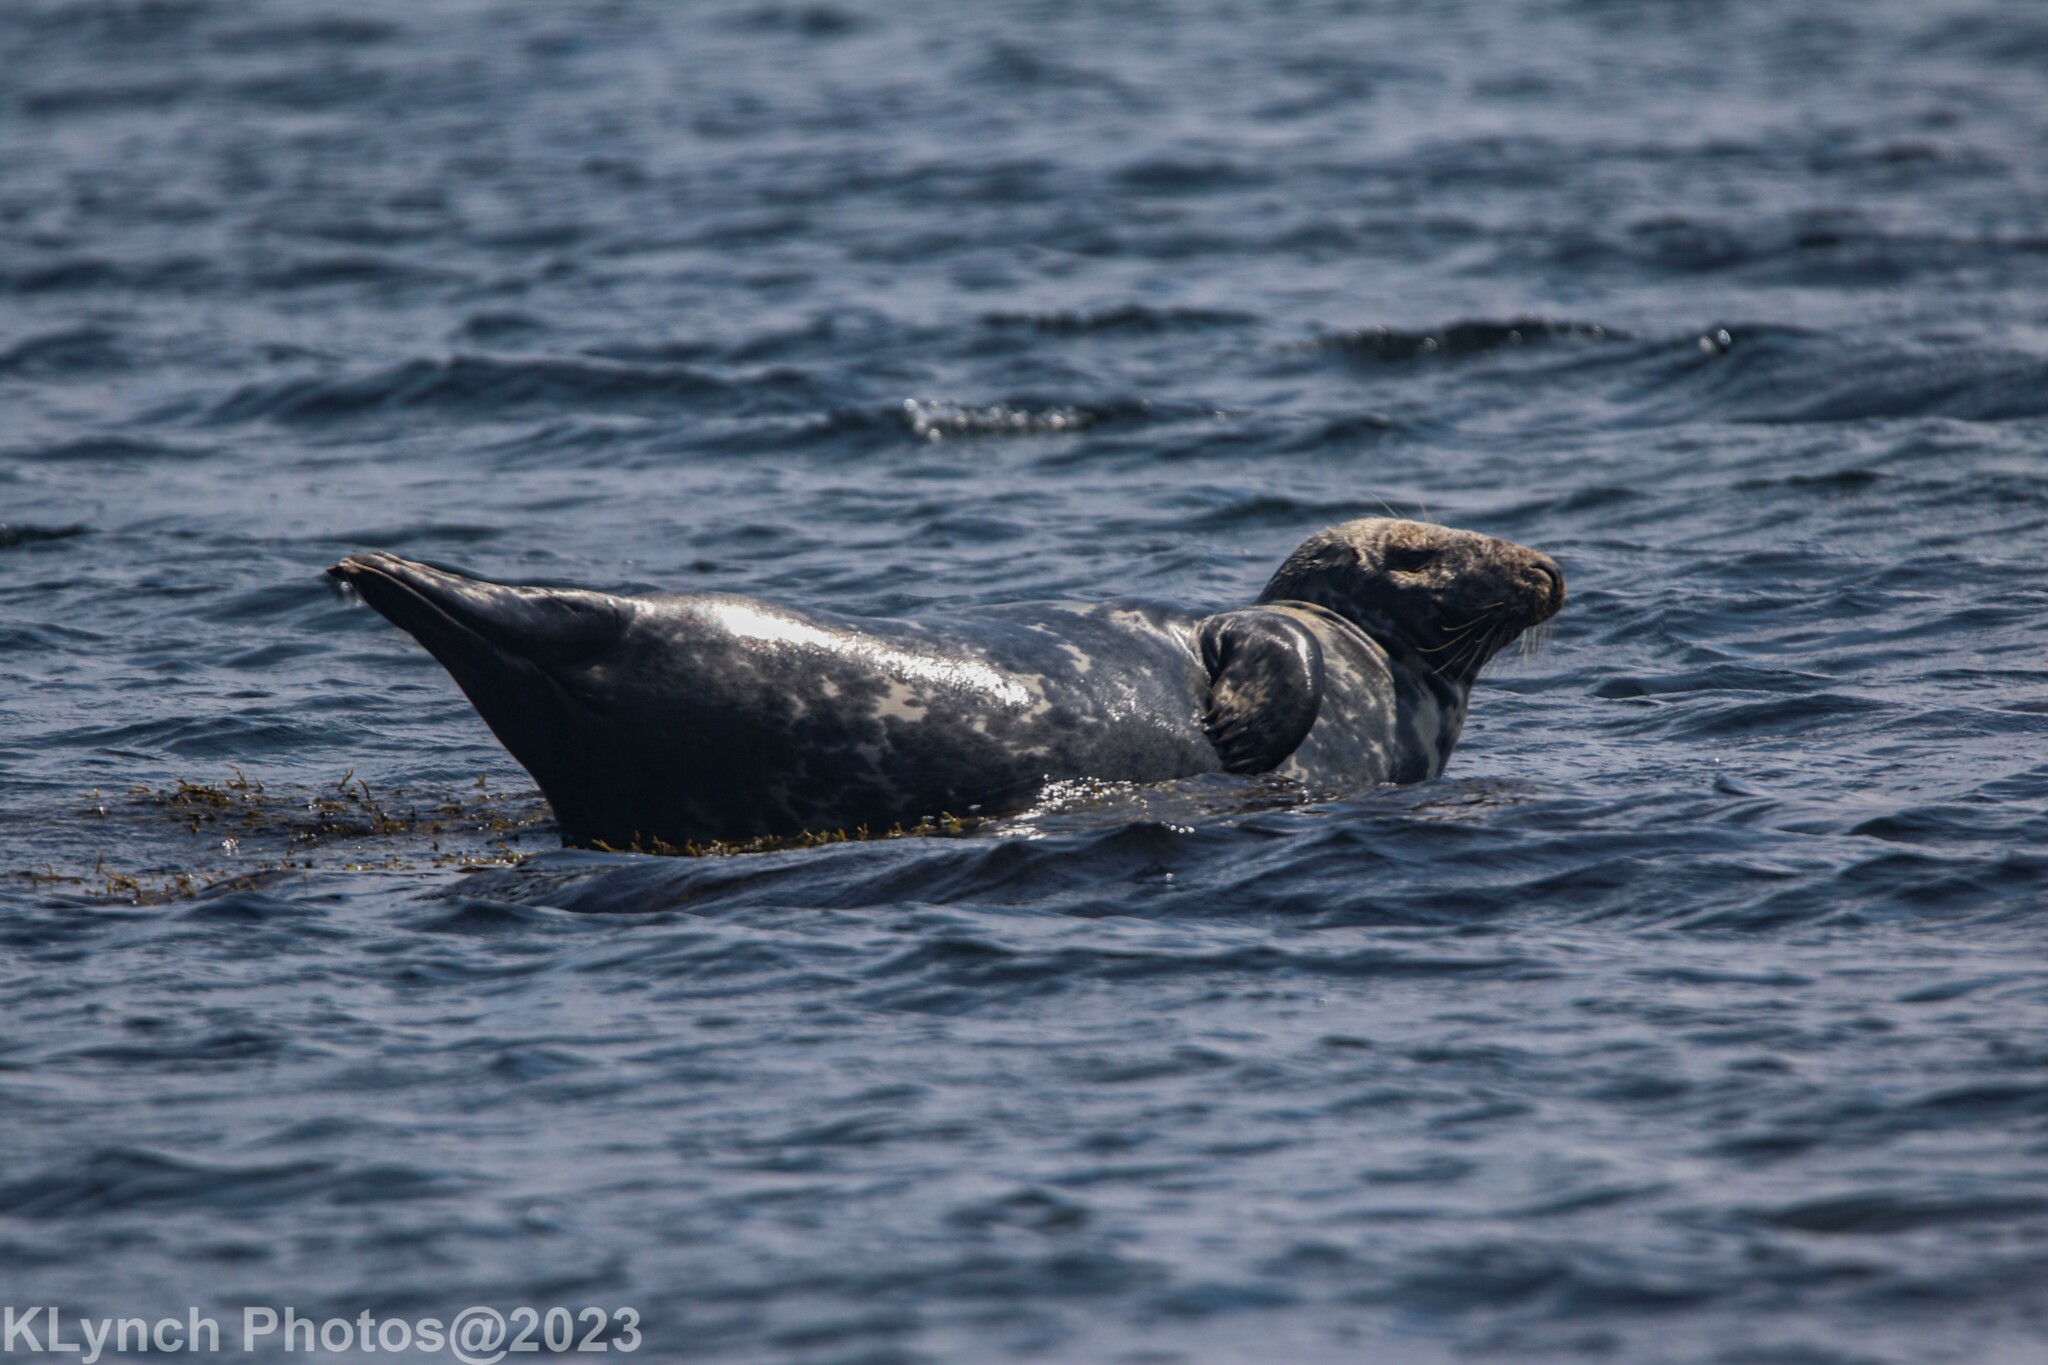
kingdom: Animalia
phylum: Chordata
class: Mammalia
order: Carnivora
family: Phocidae
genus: Halichoerus
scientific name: Halichoerus grypus
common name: Grey seal
